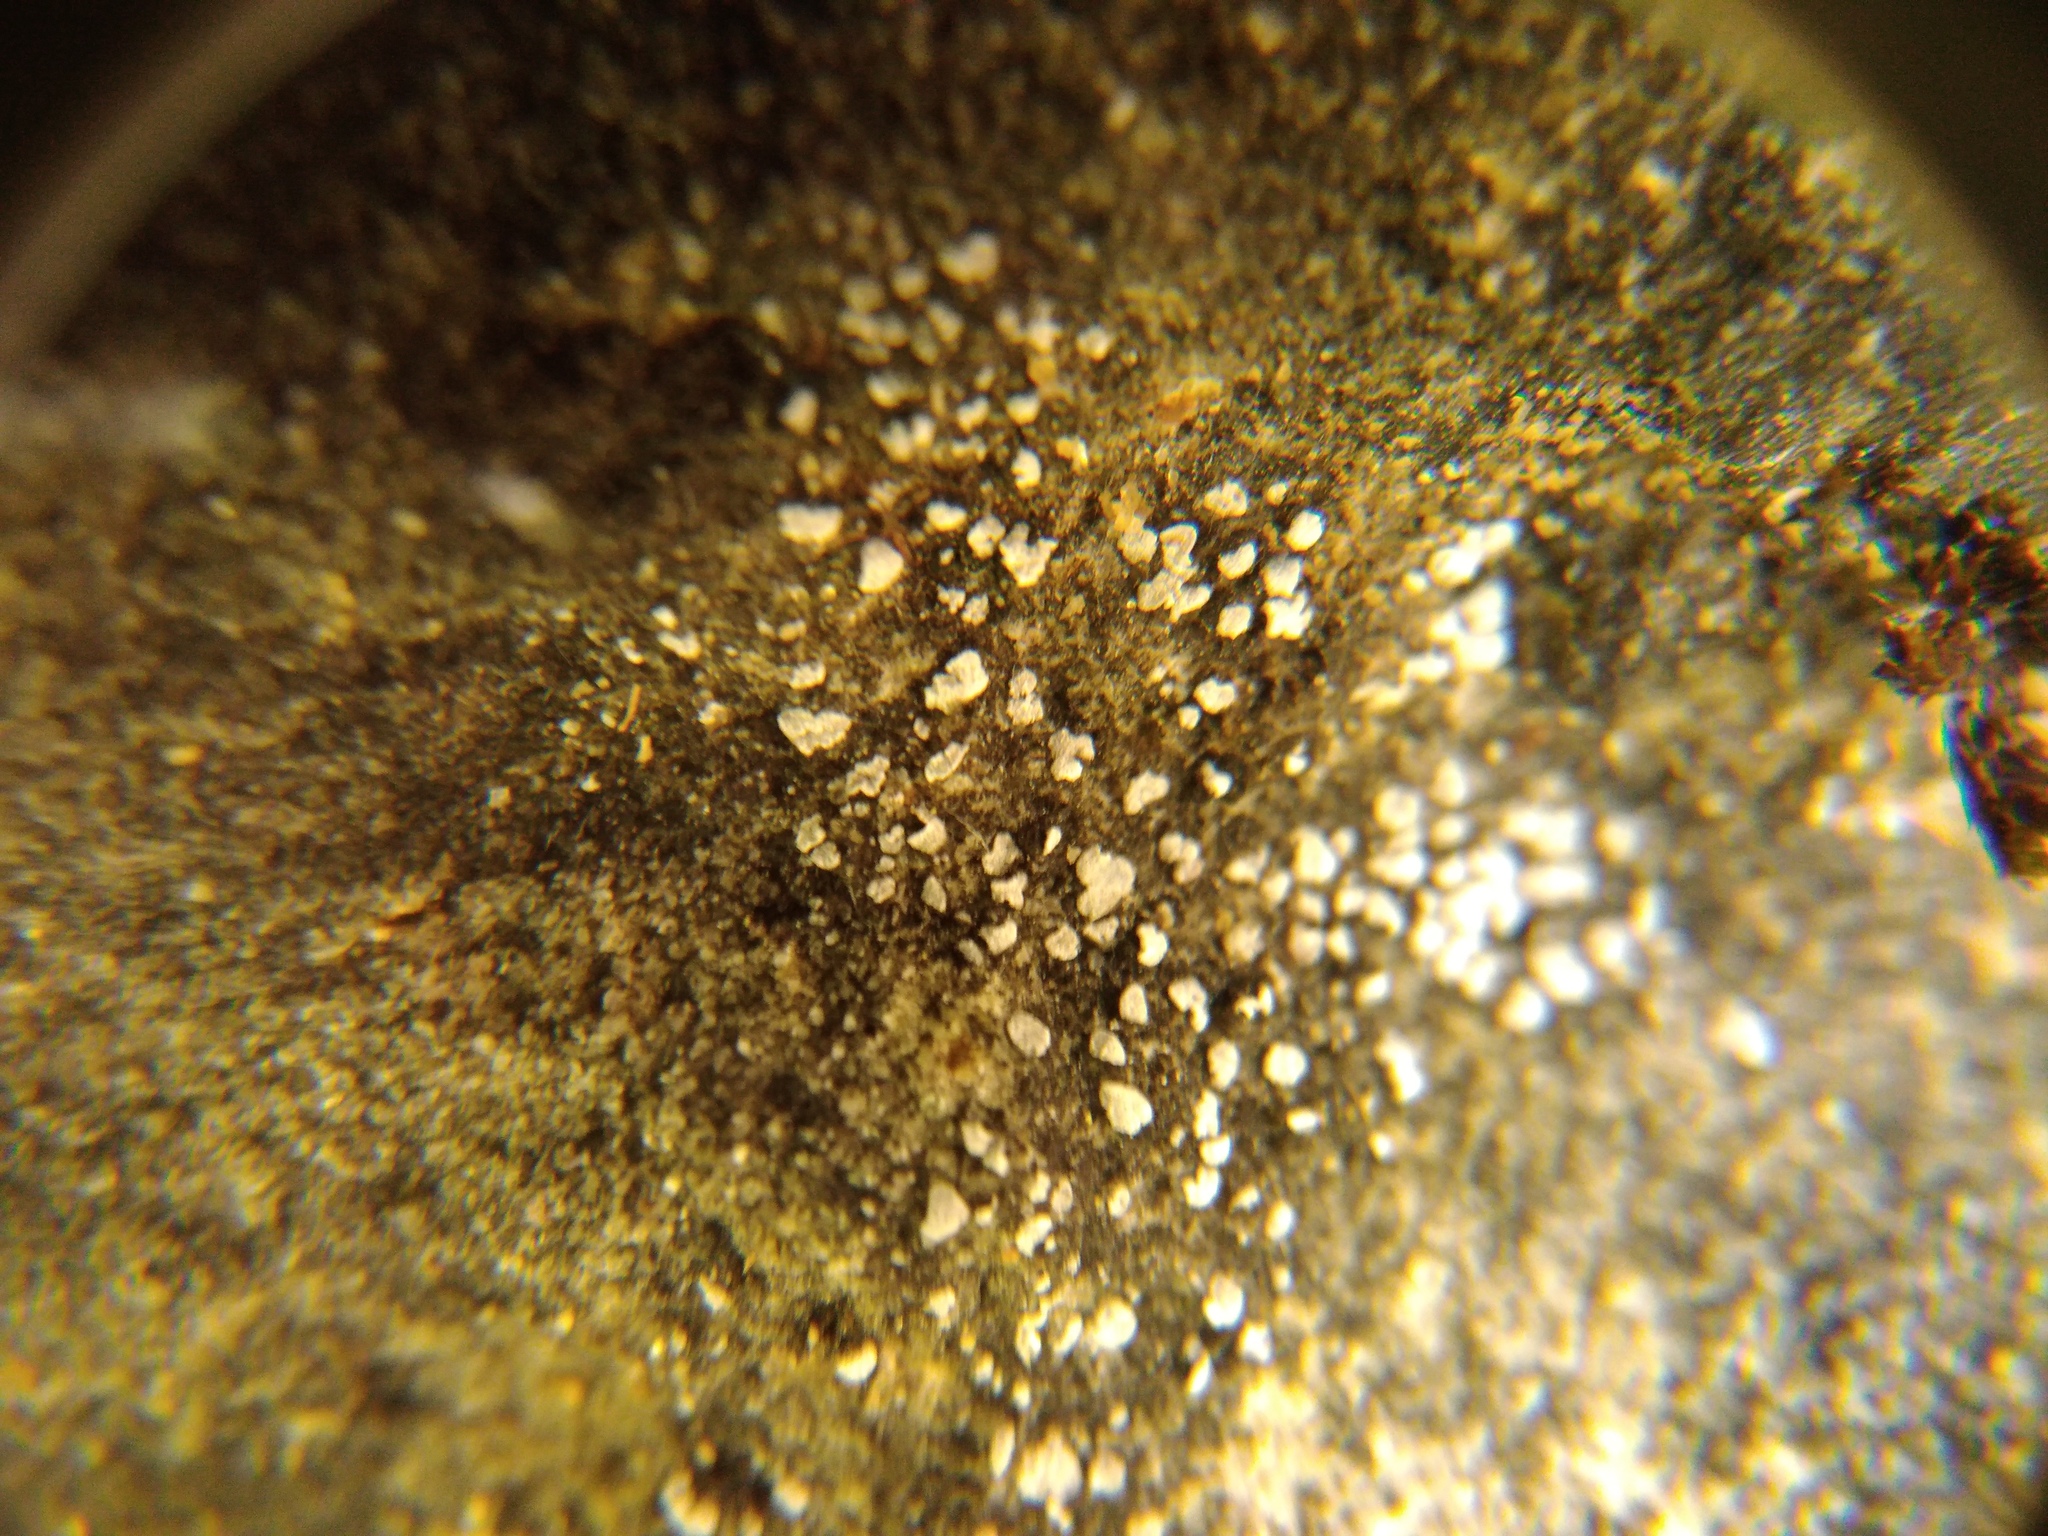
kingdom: Fungi
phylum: Ascomycota
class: Lecanoromycetes
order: Acarosporales
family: Acarosporaceae
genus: Acarospora
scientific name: Acarospora moenium
